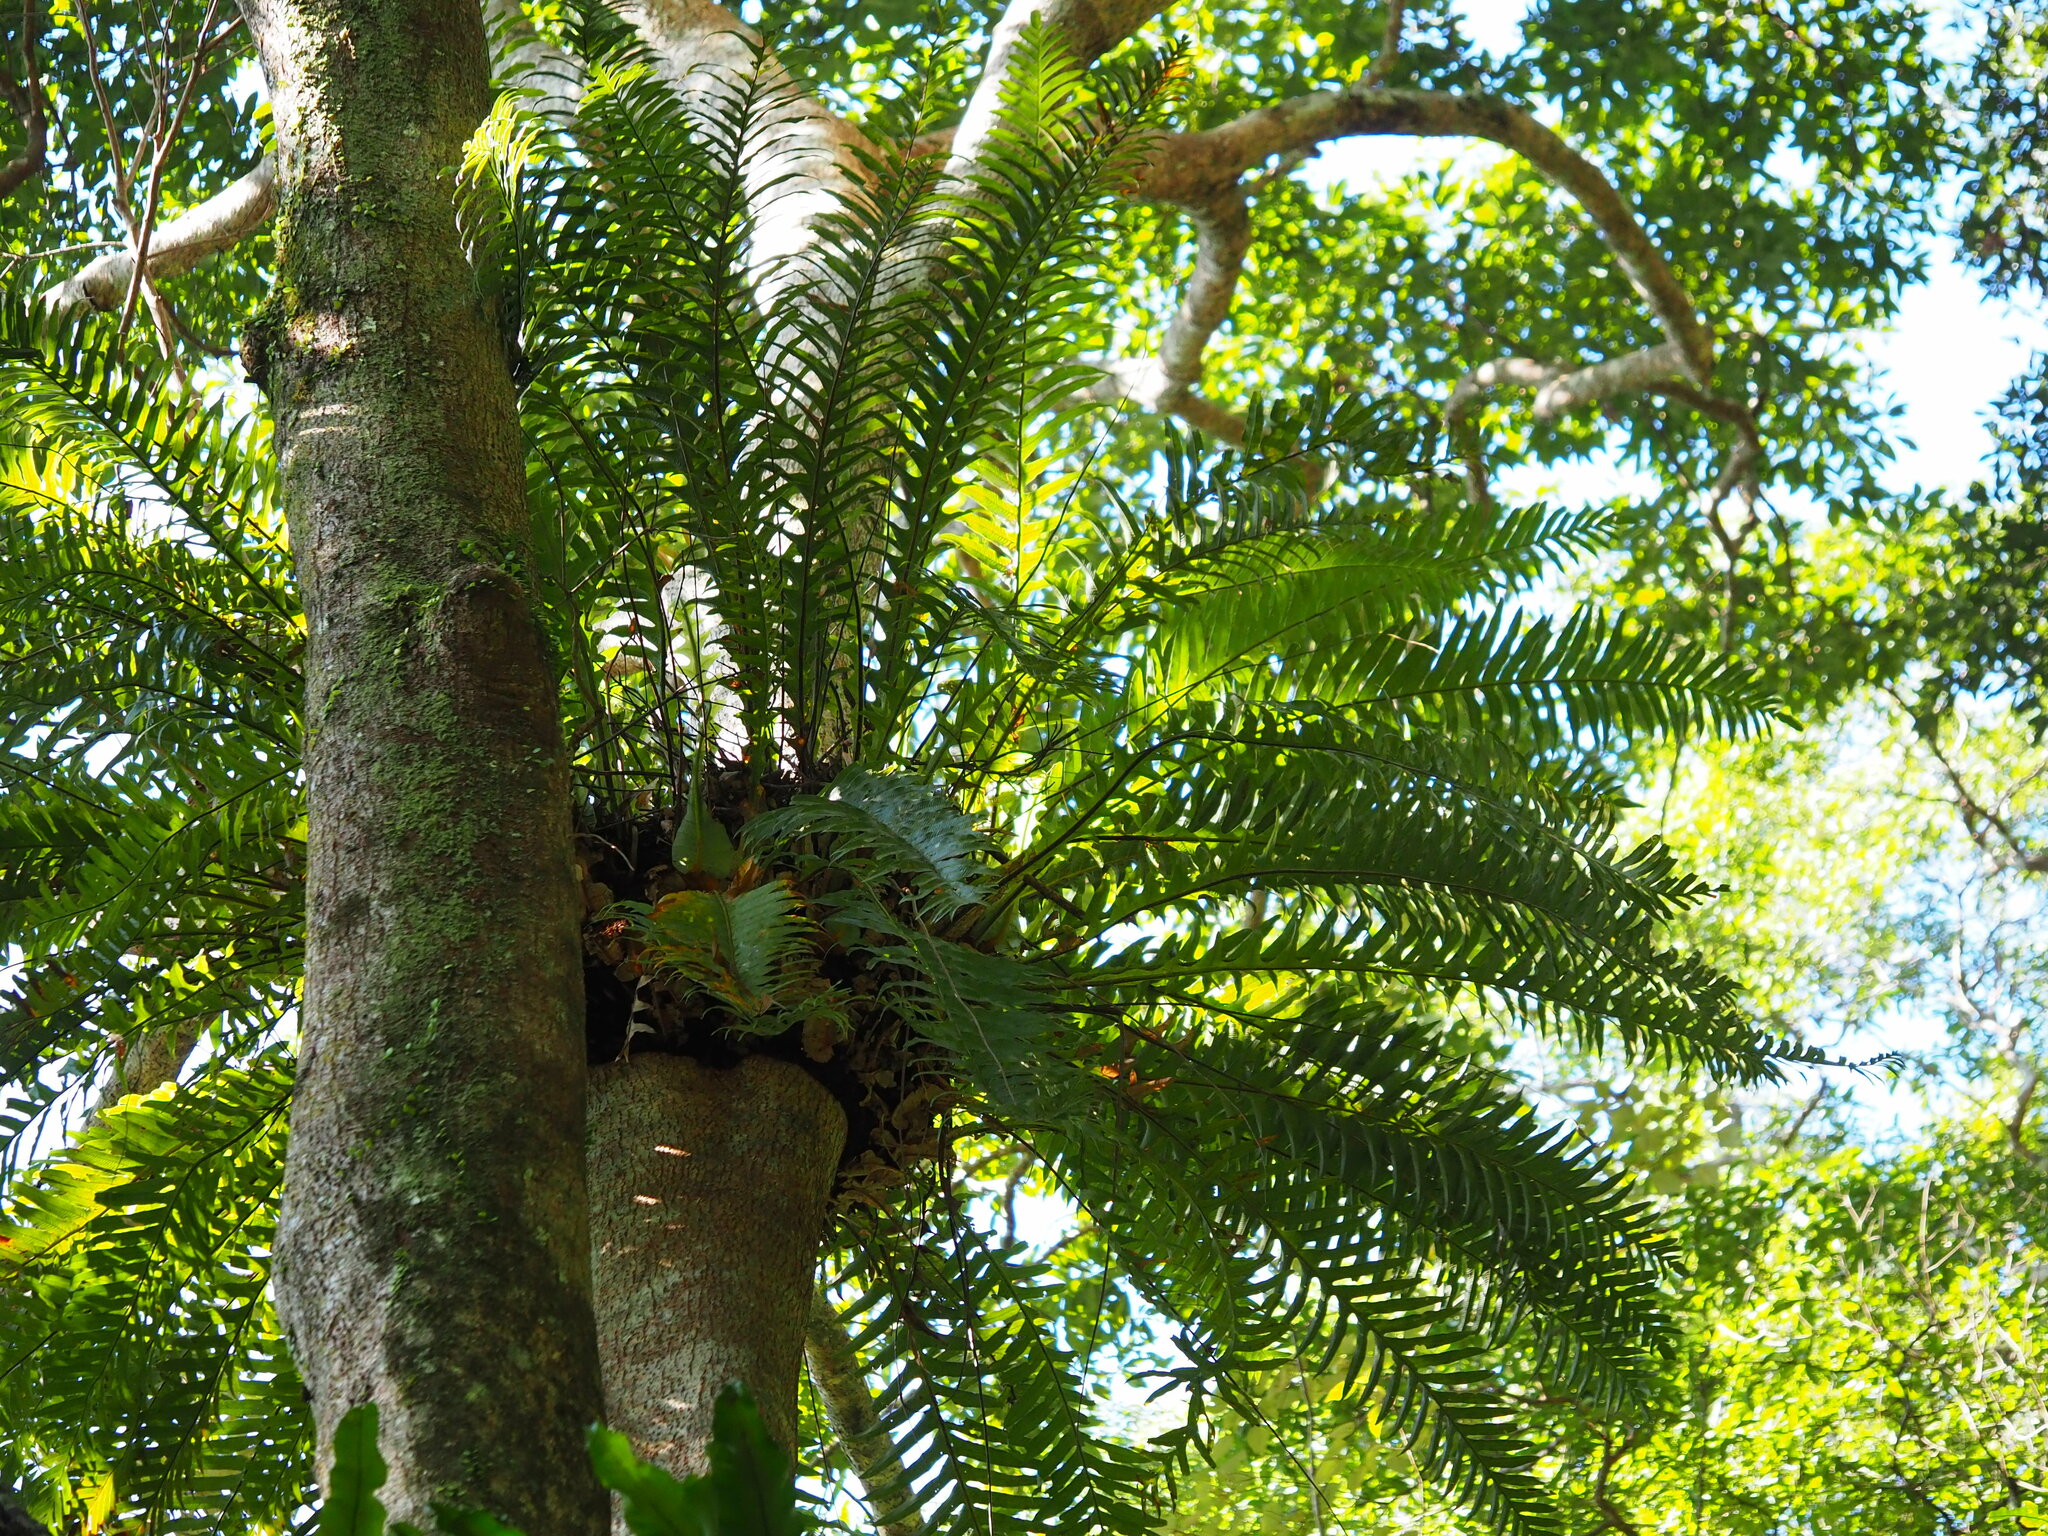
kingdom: Plantae
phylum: Tracheophyta
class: Polypodiopsida
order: Polypodiales
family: Polypodiaceae
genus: Drynaria
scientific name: Drynaria coronans
